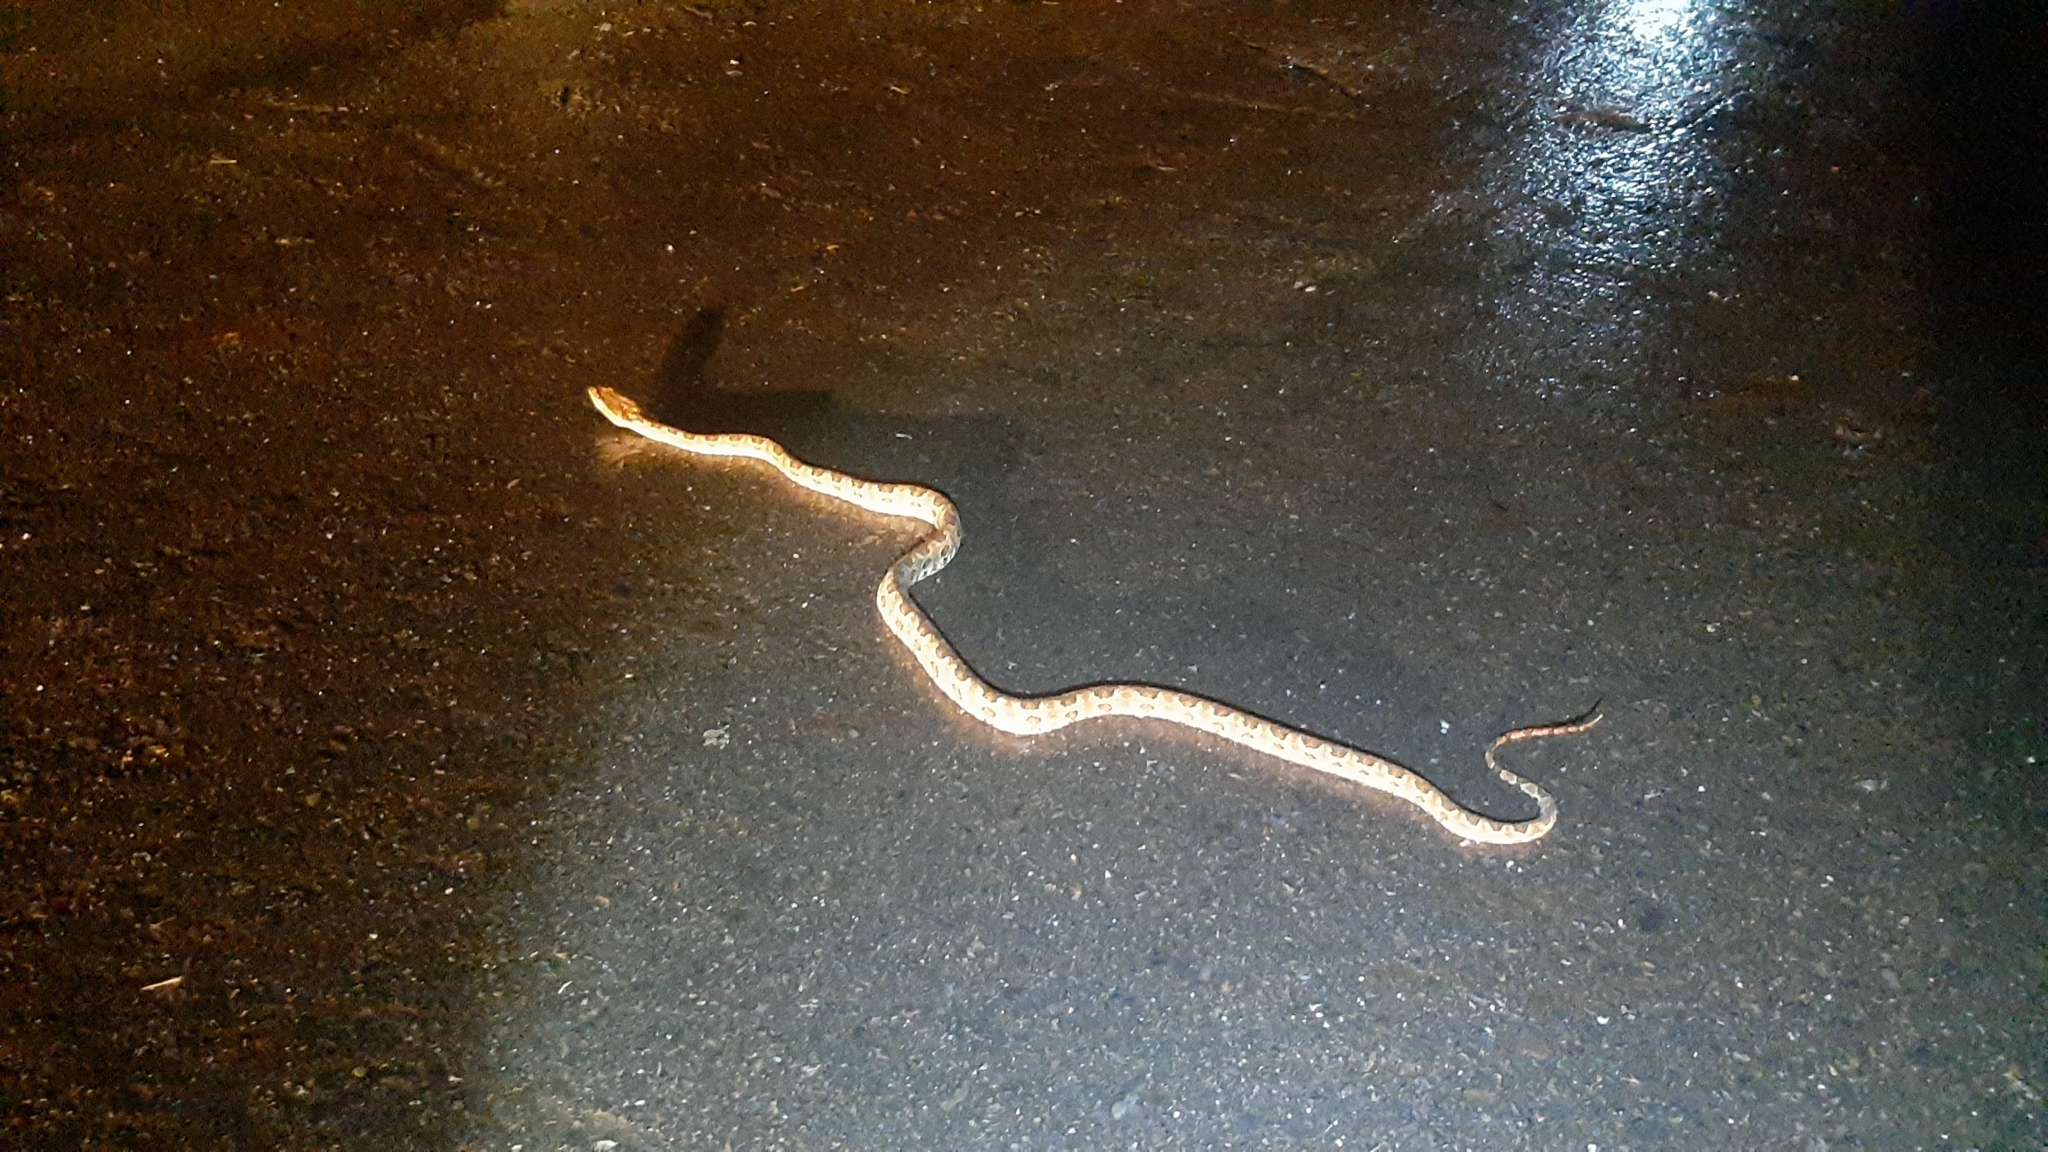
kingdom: Animalia
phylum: Chordata
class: Squamata
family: Viperidae
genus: Protobothrops
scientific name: Protobothrops mucrosquamatus
